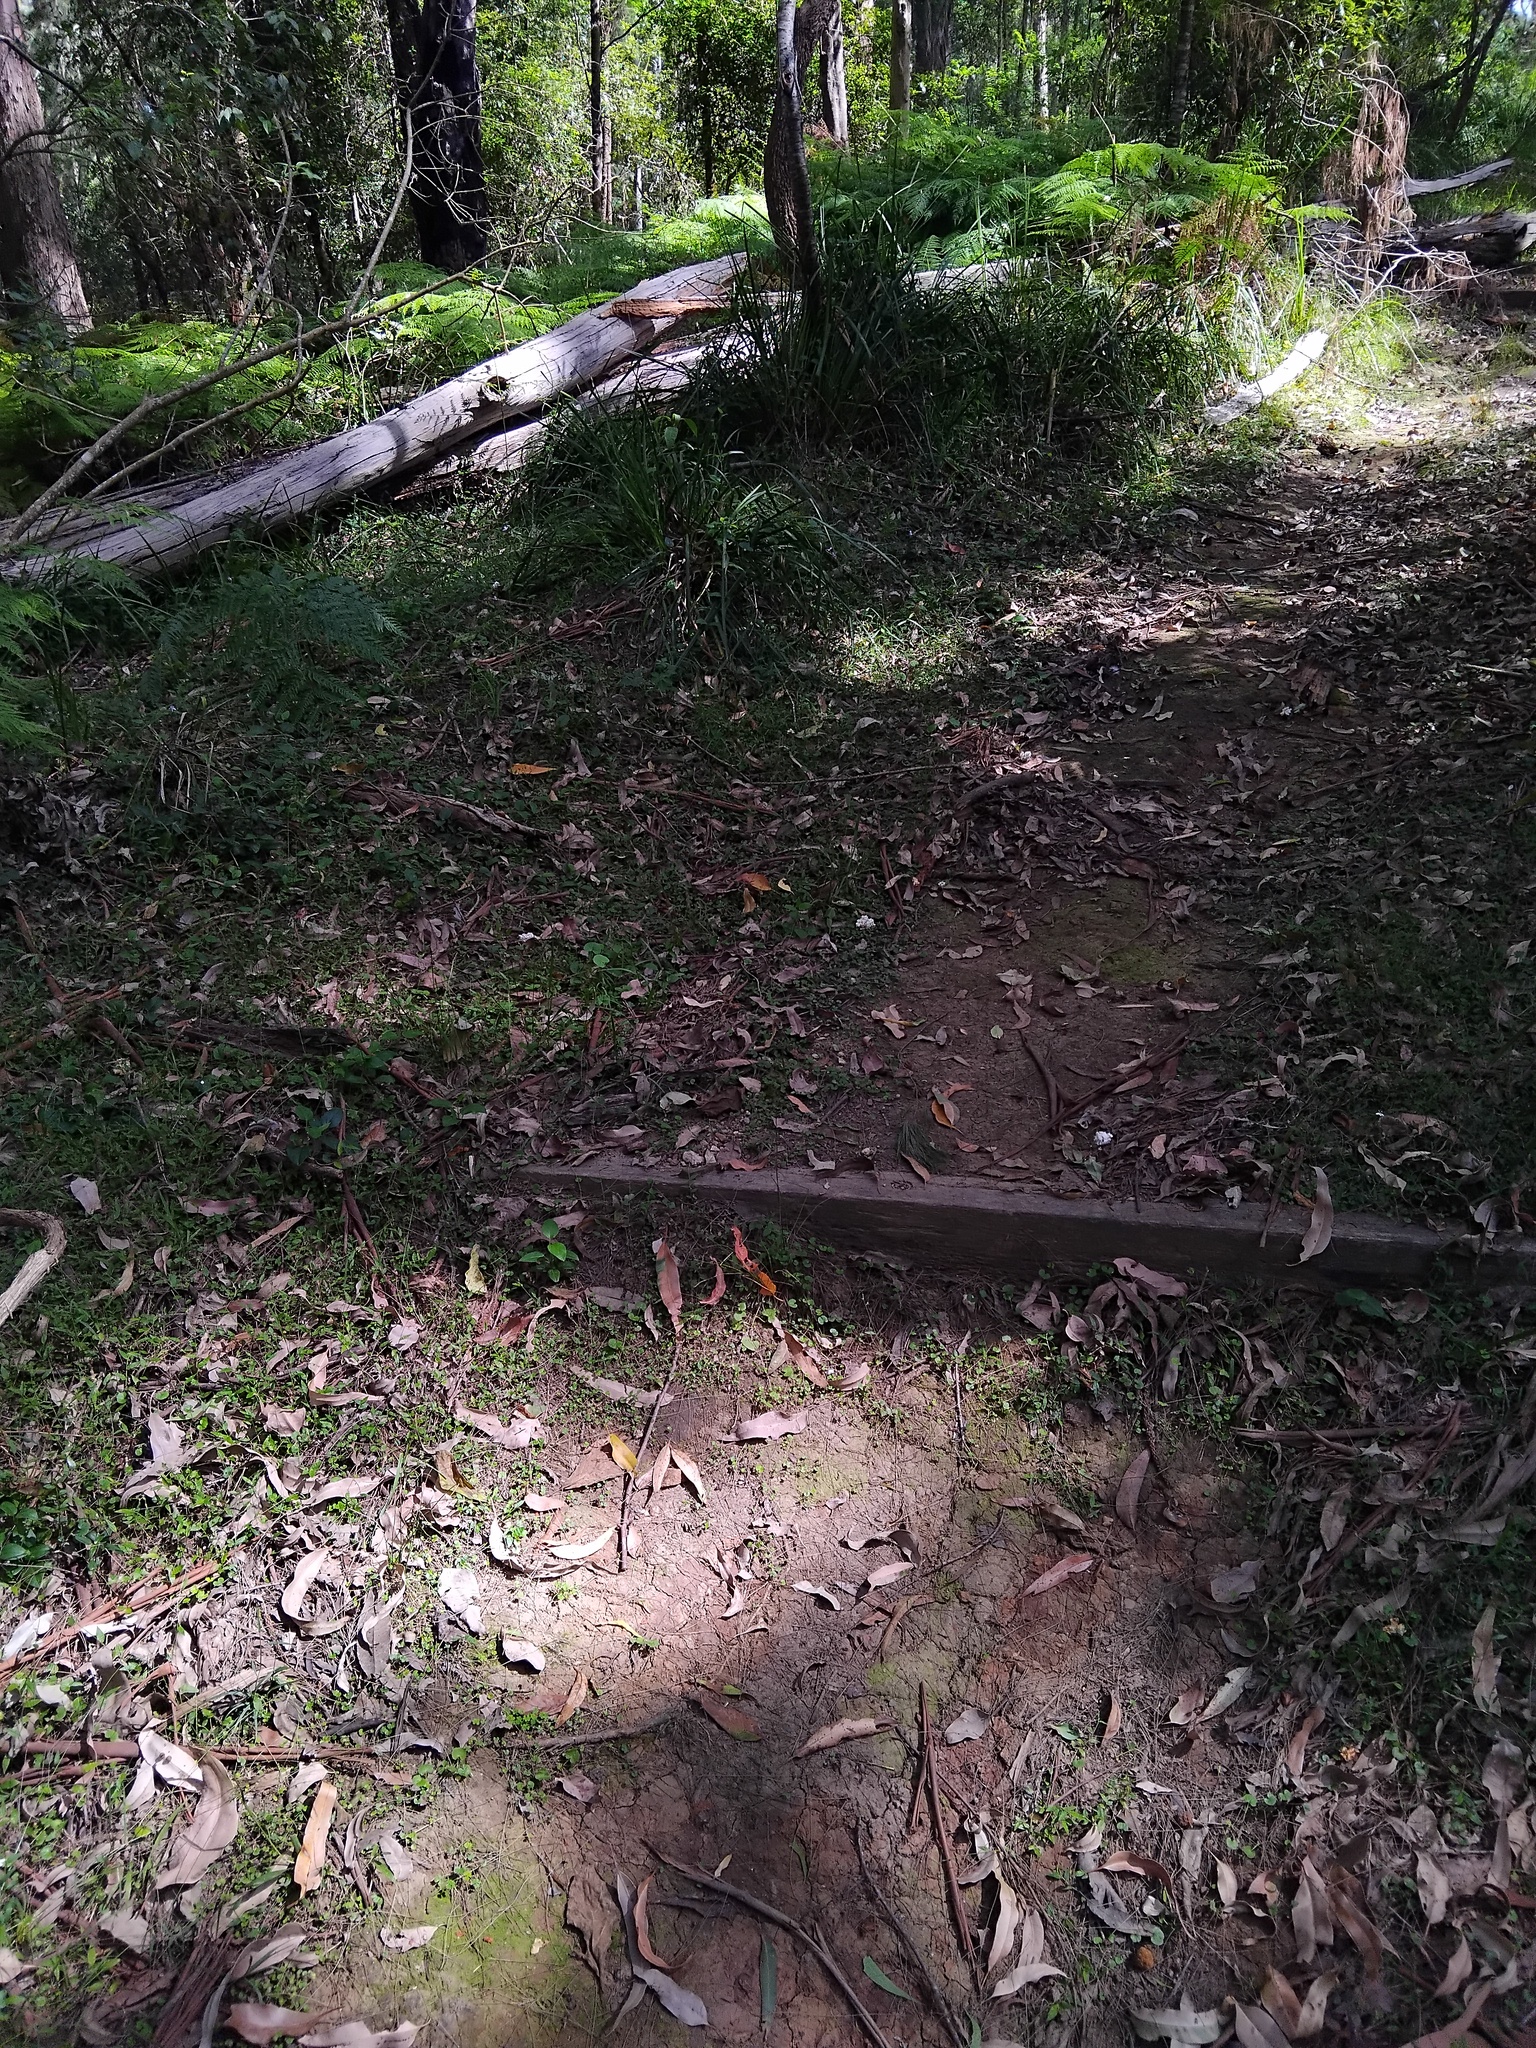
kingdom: Fungi
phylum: Basidiomycota
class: Agaricomycetes
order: Polyporales
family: Laetiporaceae
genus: Laetiporus
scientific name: Laetiporus portentosus
